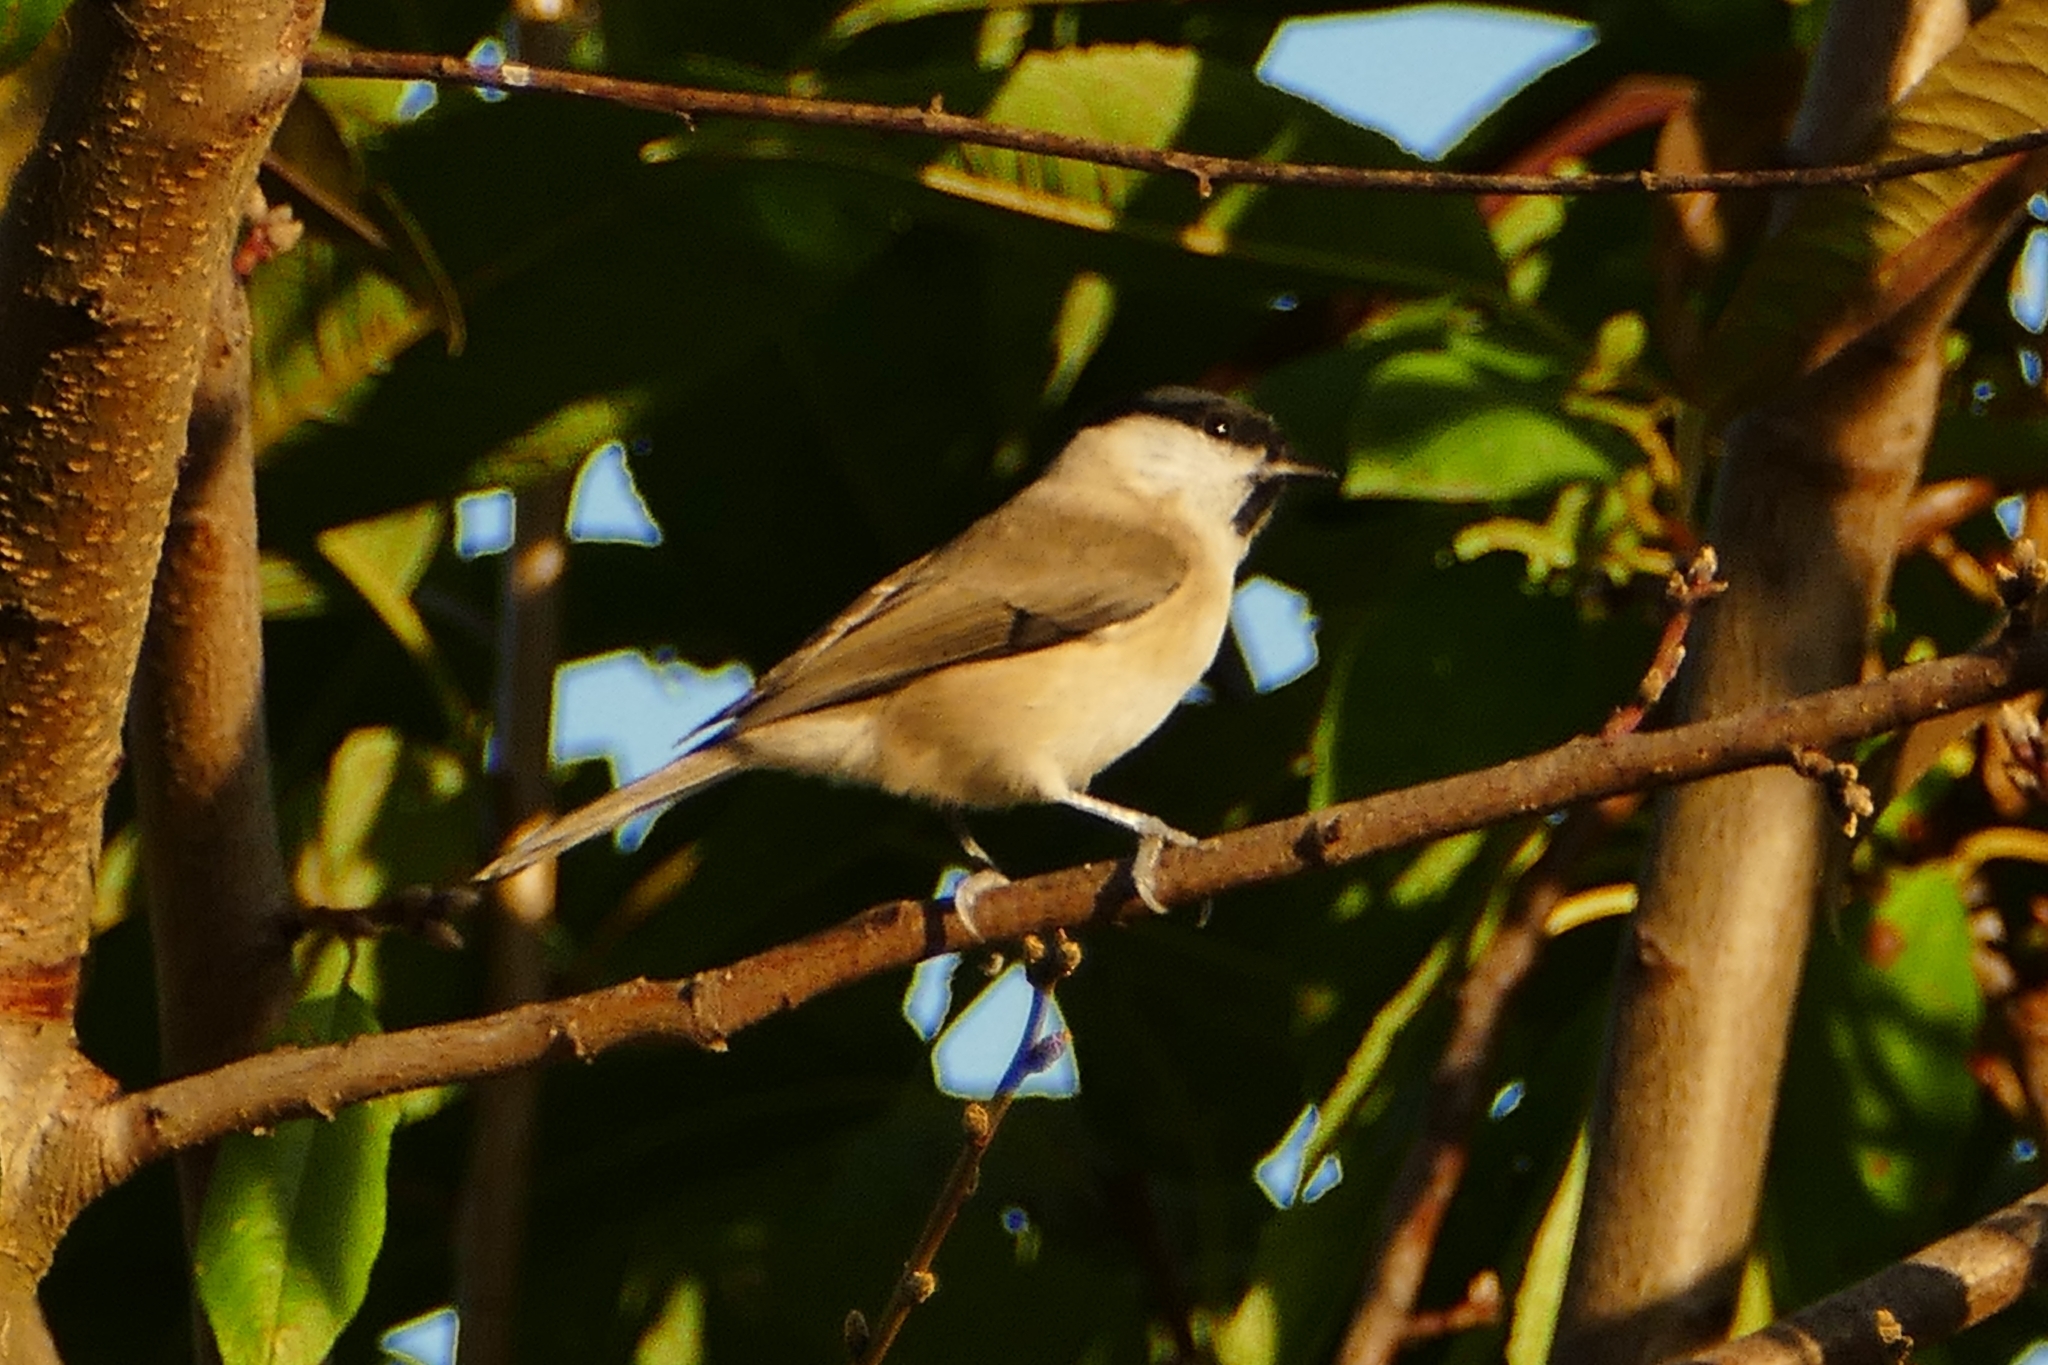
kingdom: Animalia
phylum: Chordata
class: Aves
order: Passeriformes
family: Paridae
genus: Poecile
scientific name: Poecile palustris
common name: Marsh tit
